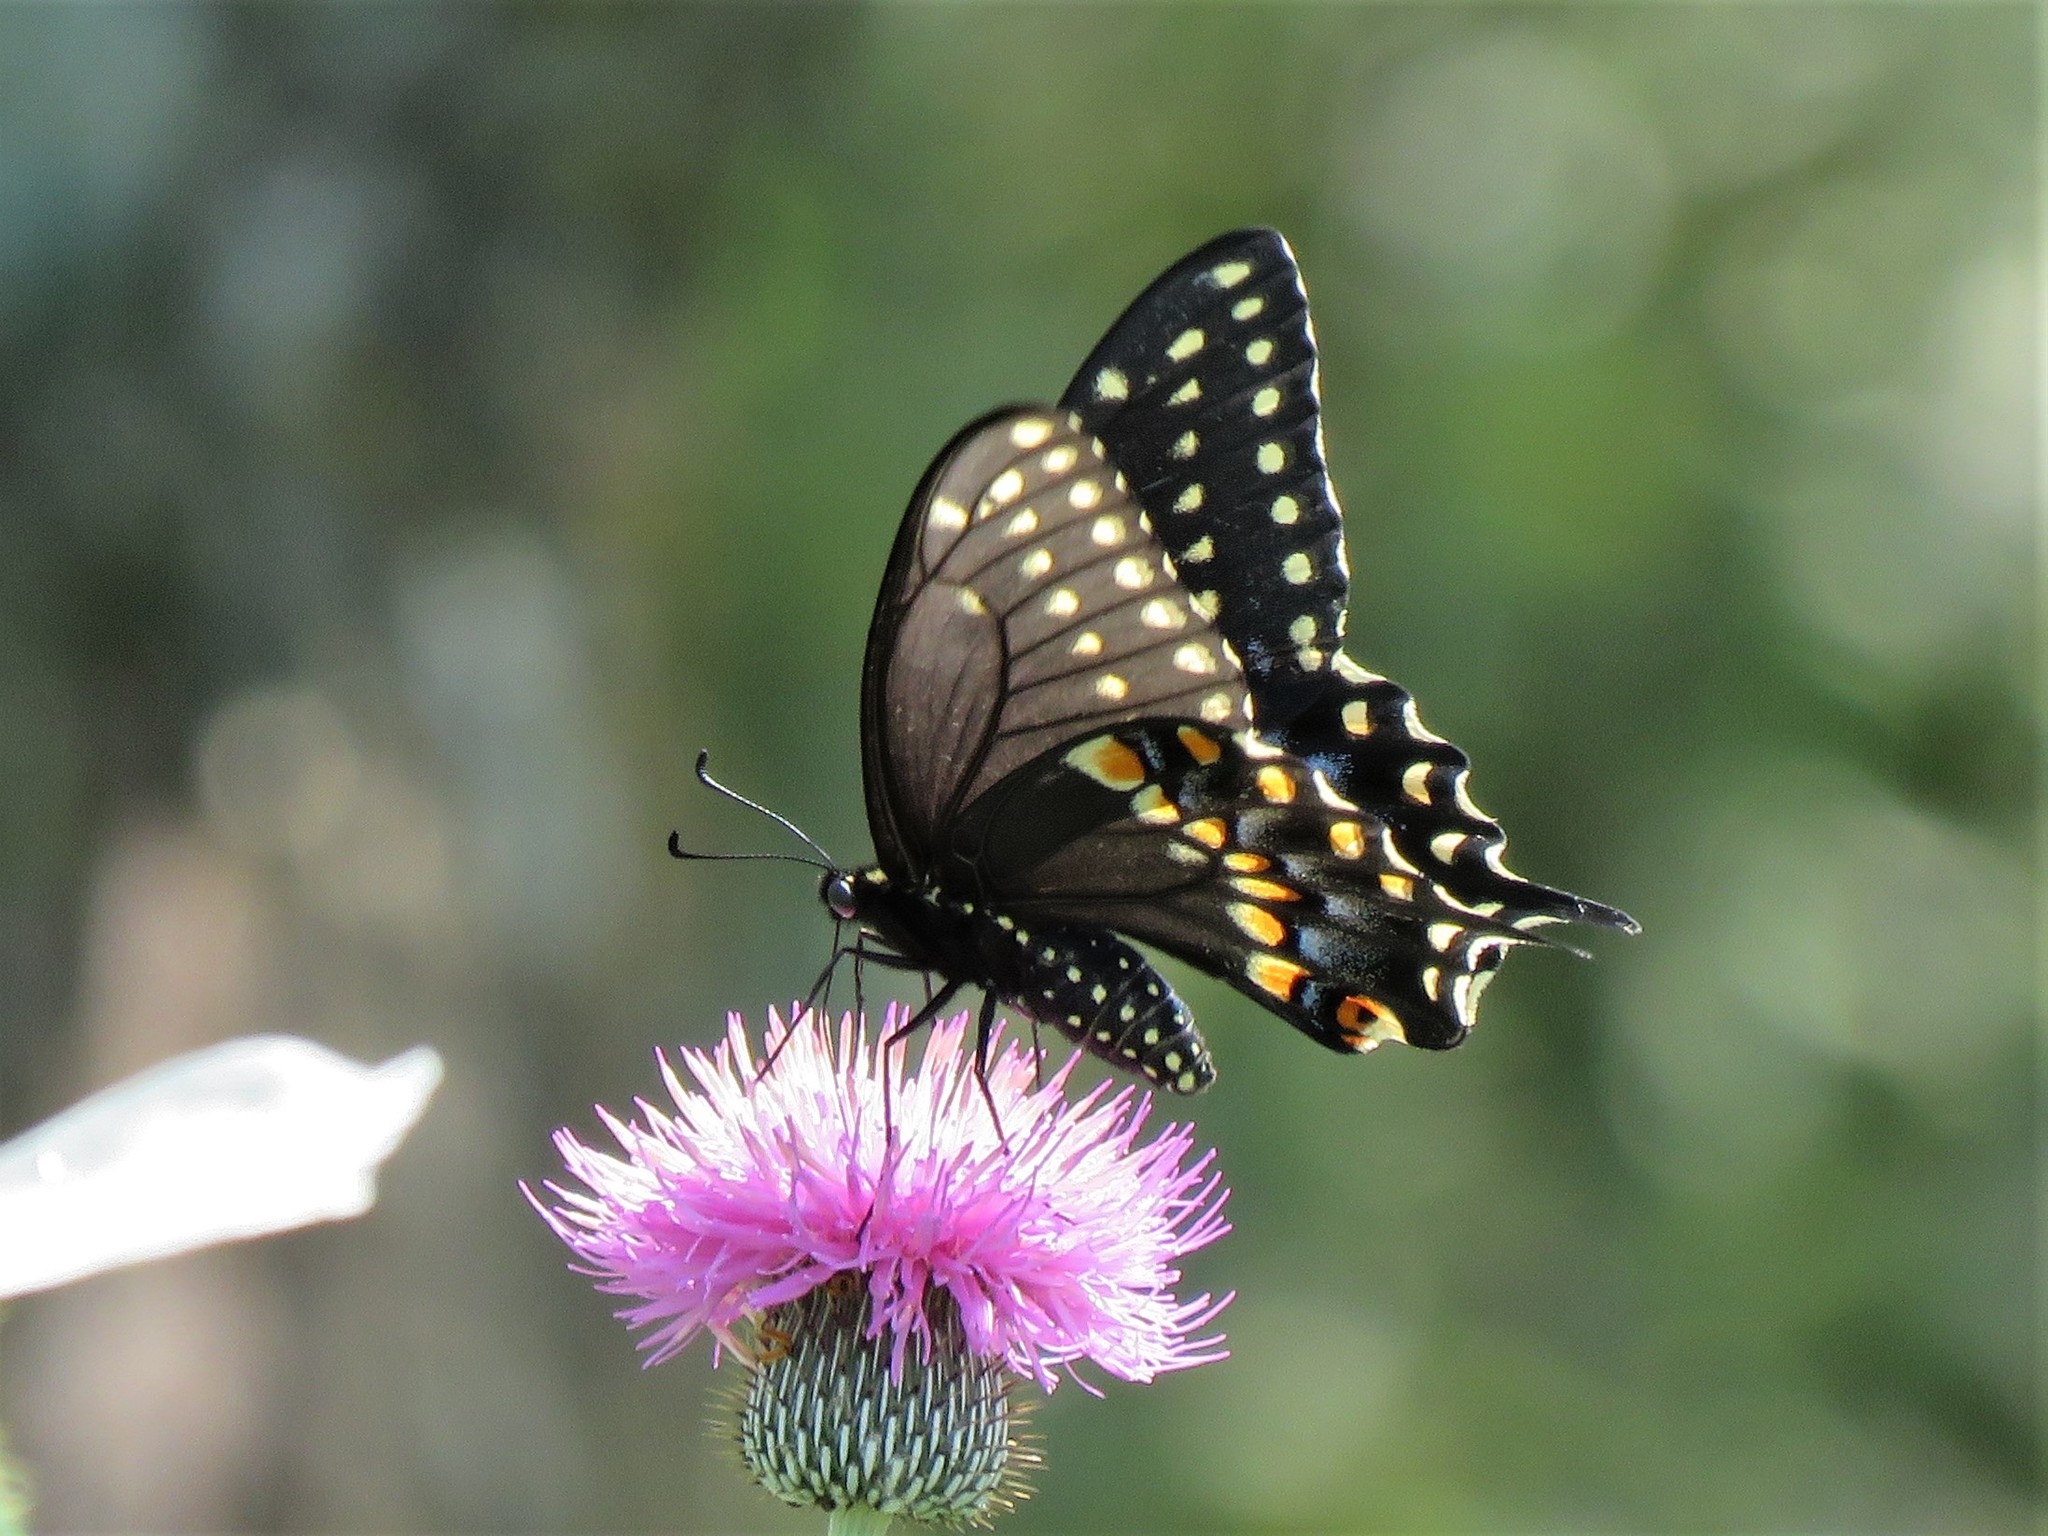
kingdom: Animalia
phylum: Arthropoda
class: Insecta
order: Lepidoptera
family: Papilionidae
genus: Papilio
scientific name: Papilio polyxenes
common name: Black swallowtail
